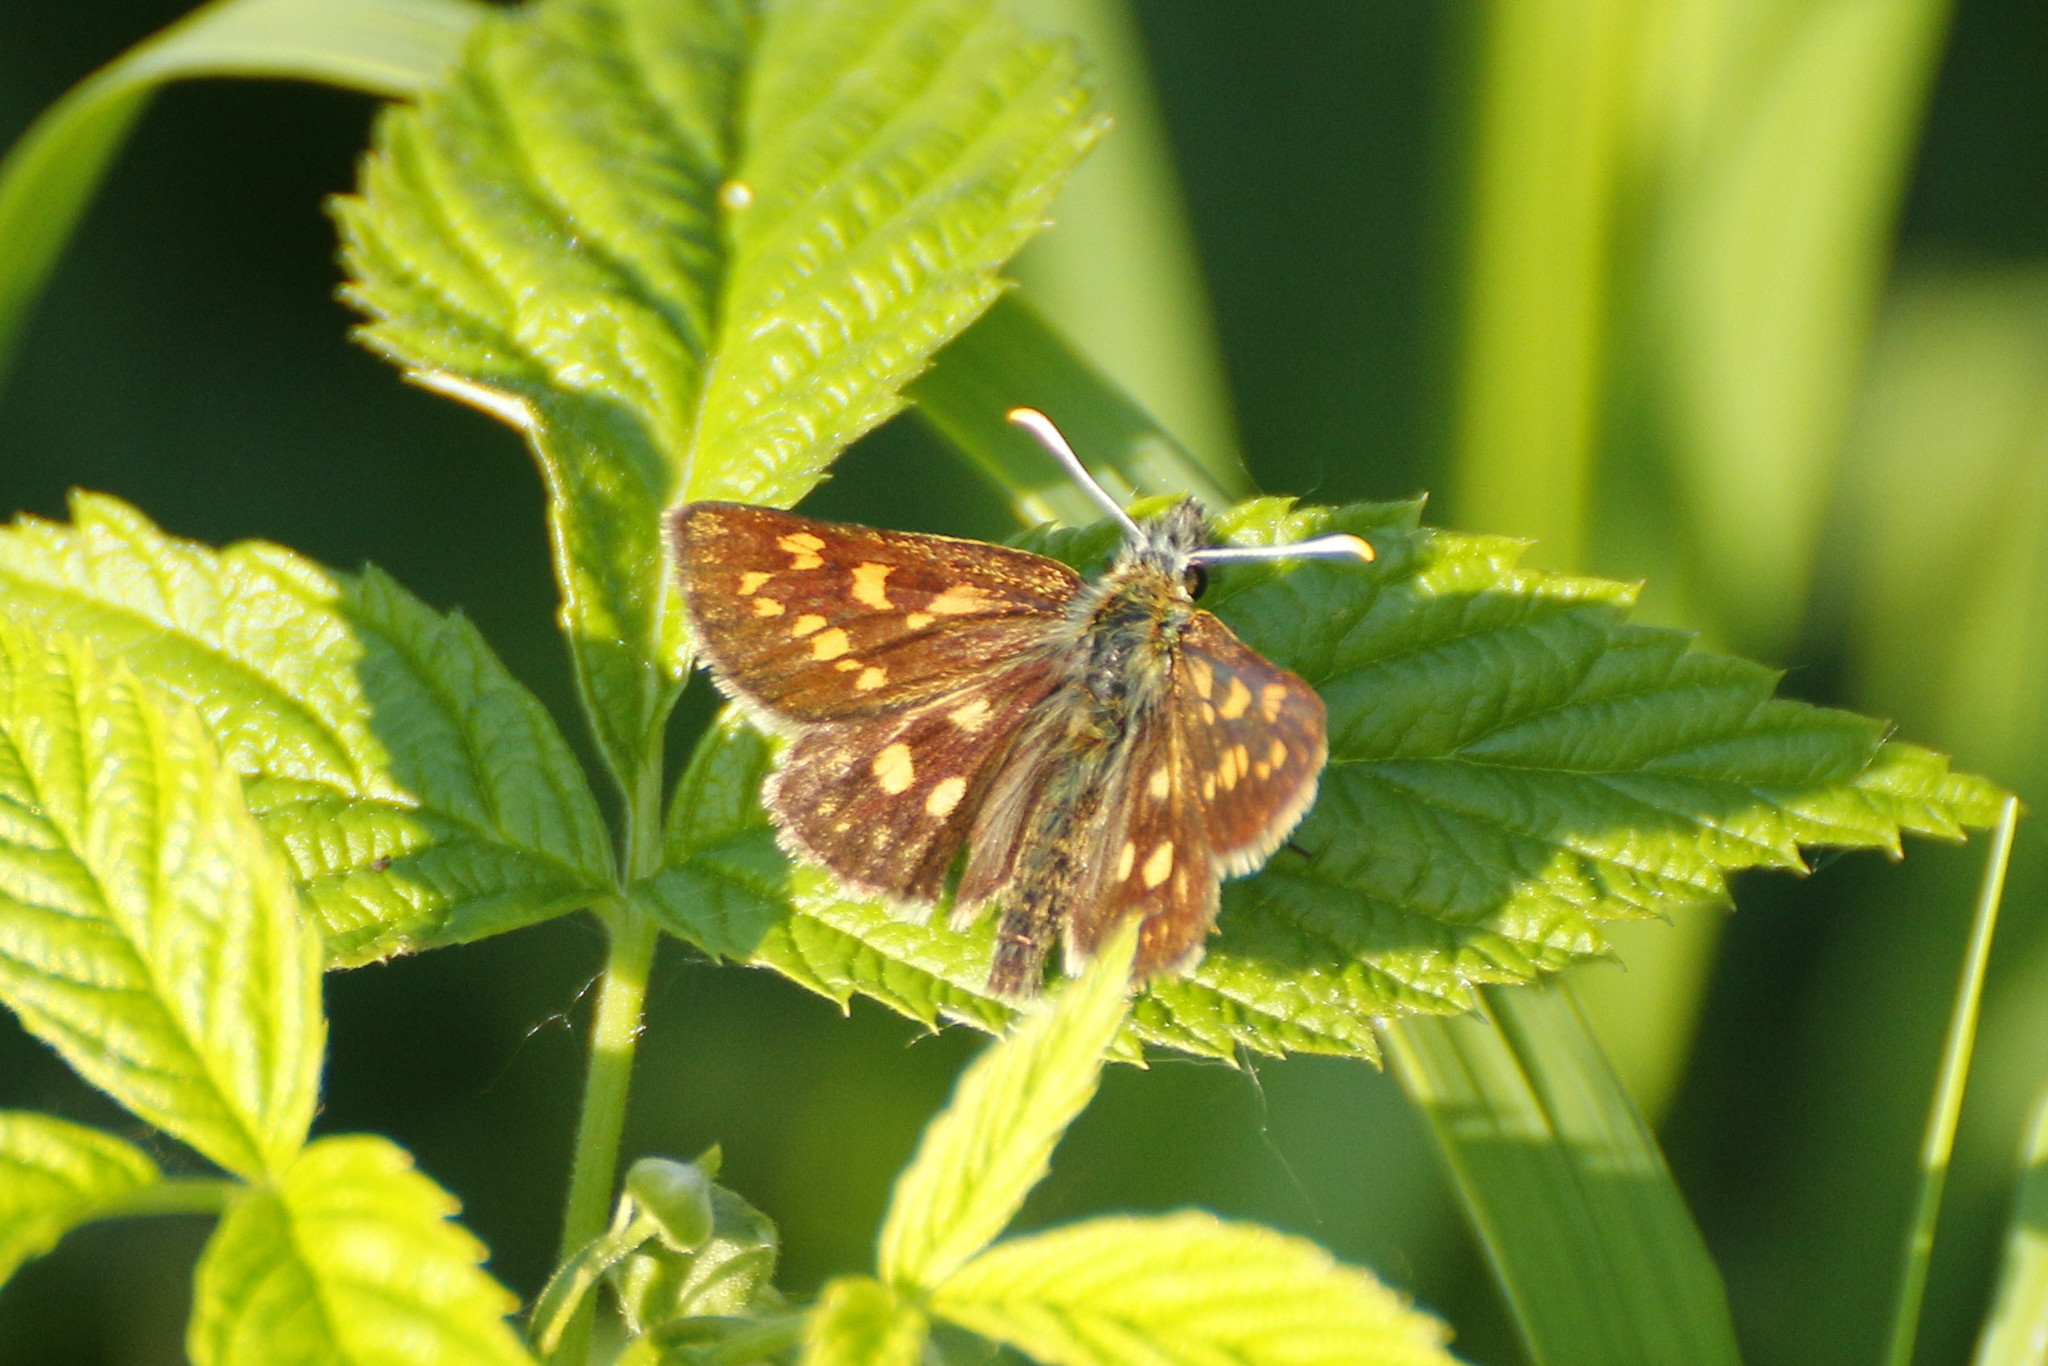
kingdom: Animalia
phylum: Arthropoda
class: Insecta
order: Lepidoptera
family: Hesperiidae
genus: Carterocephalus
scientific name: Carterocephalus palaemon
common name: Chequered skipper
